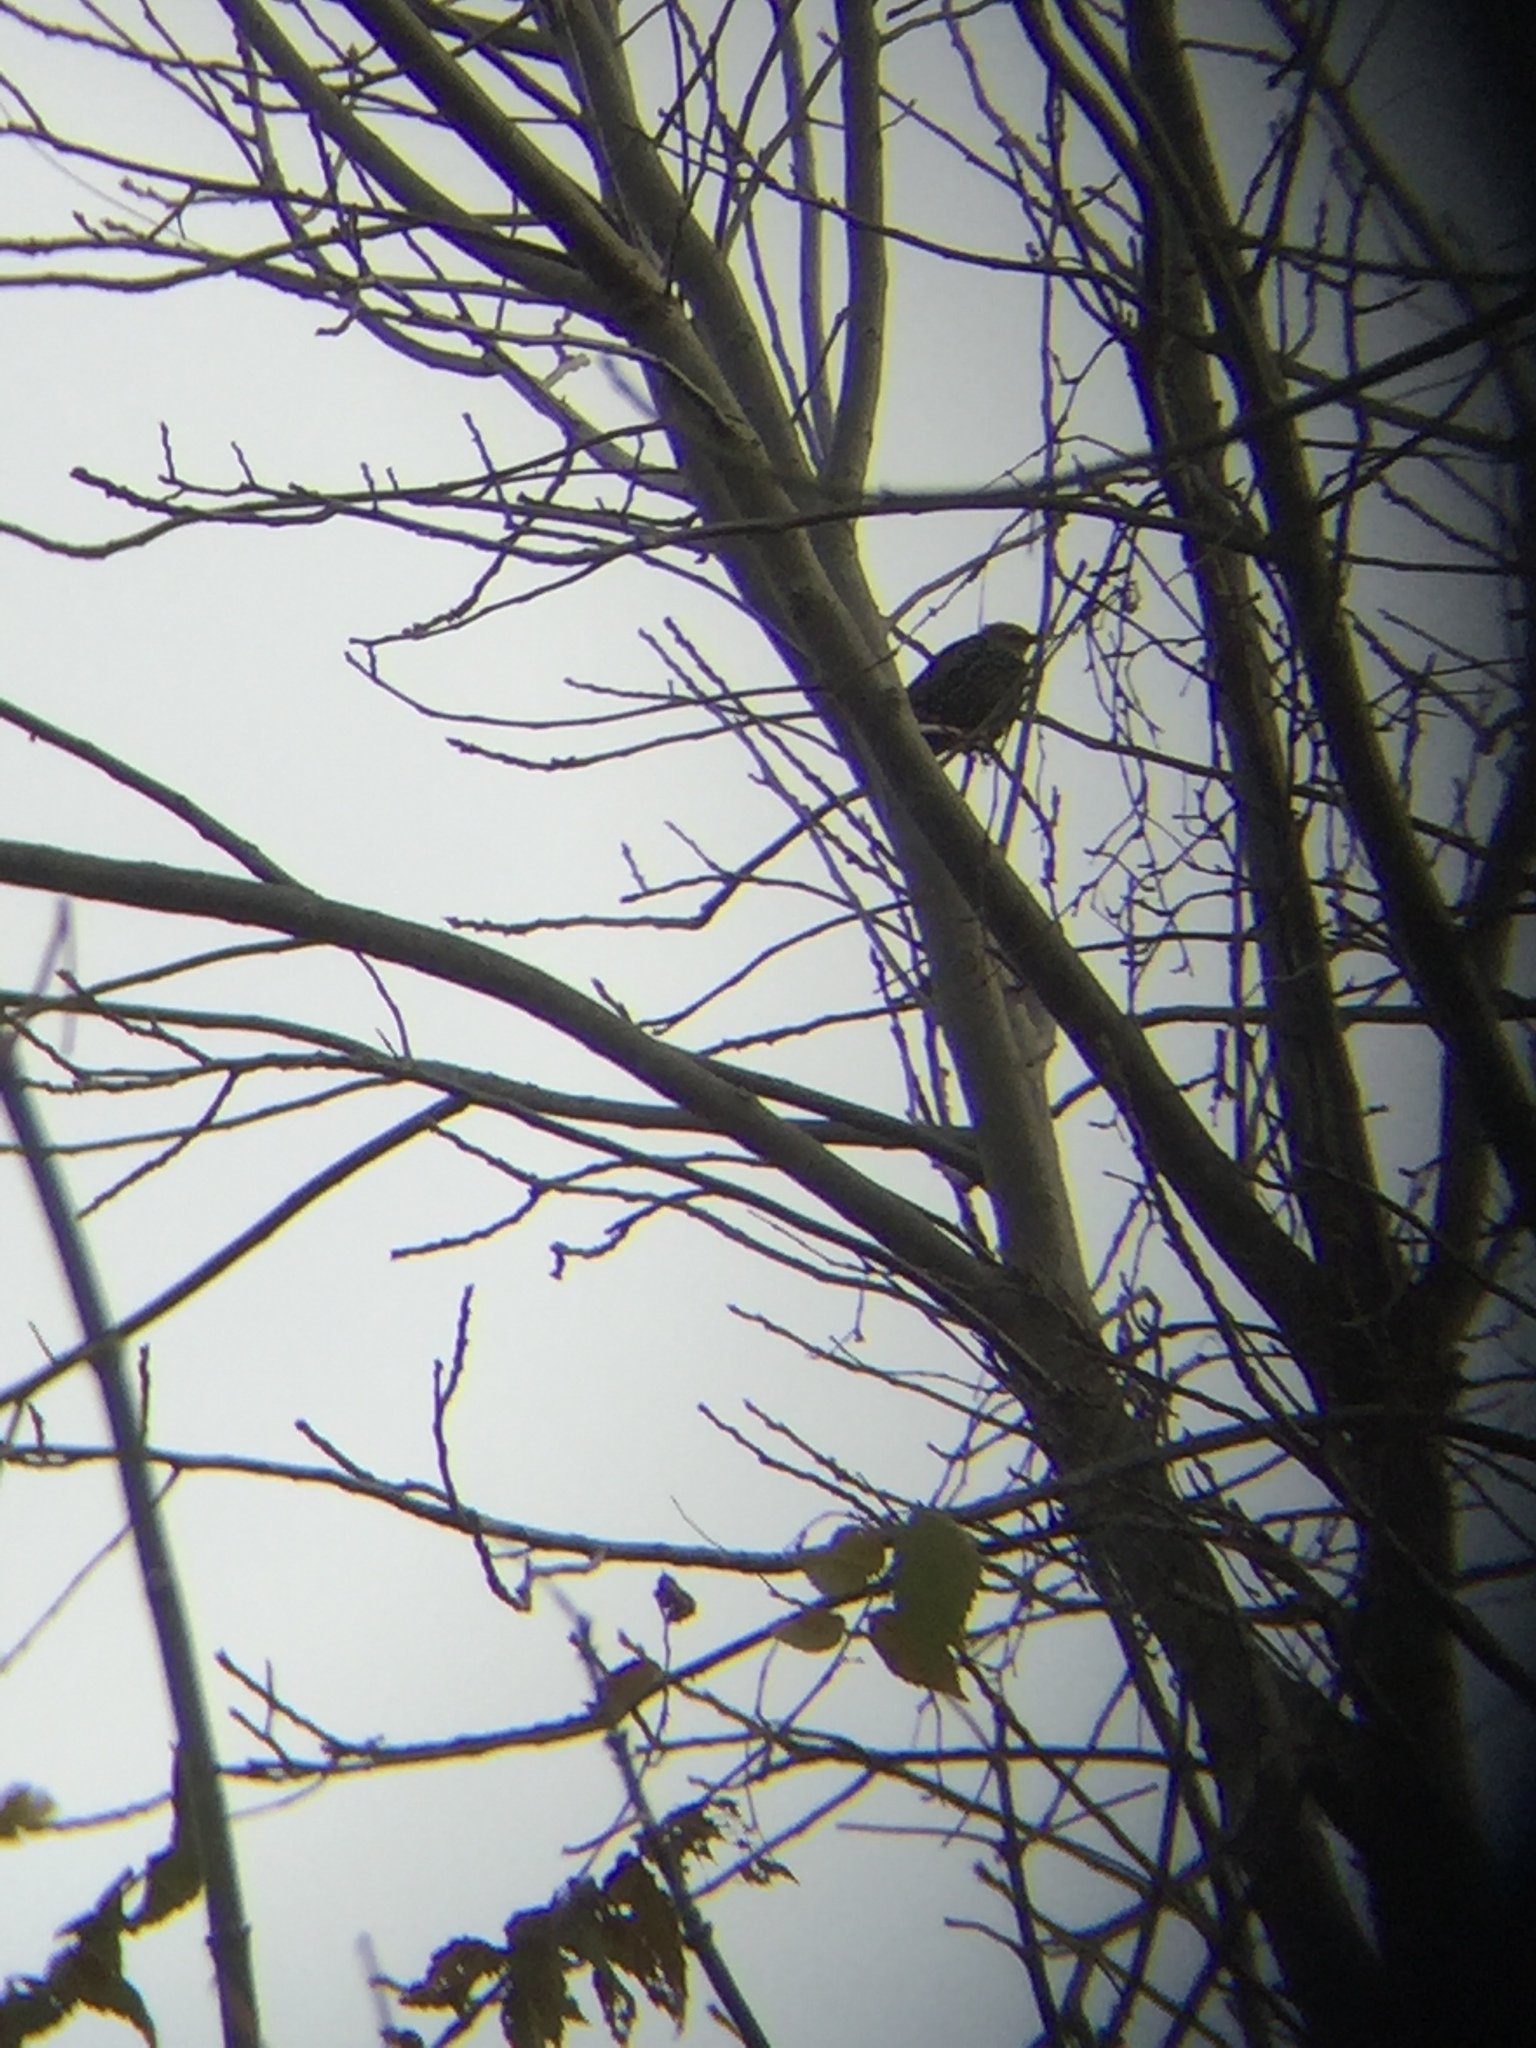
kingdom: Animalia
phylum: Chordata
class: Aves
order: Passeriformes
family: Sturnidae
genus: Sturnus
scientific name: Sturnus vulgaris
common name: Common starling
